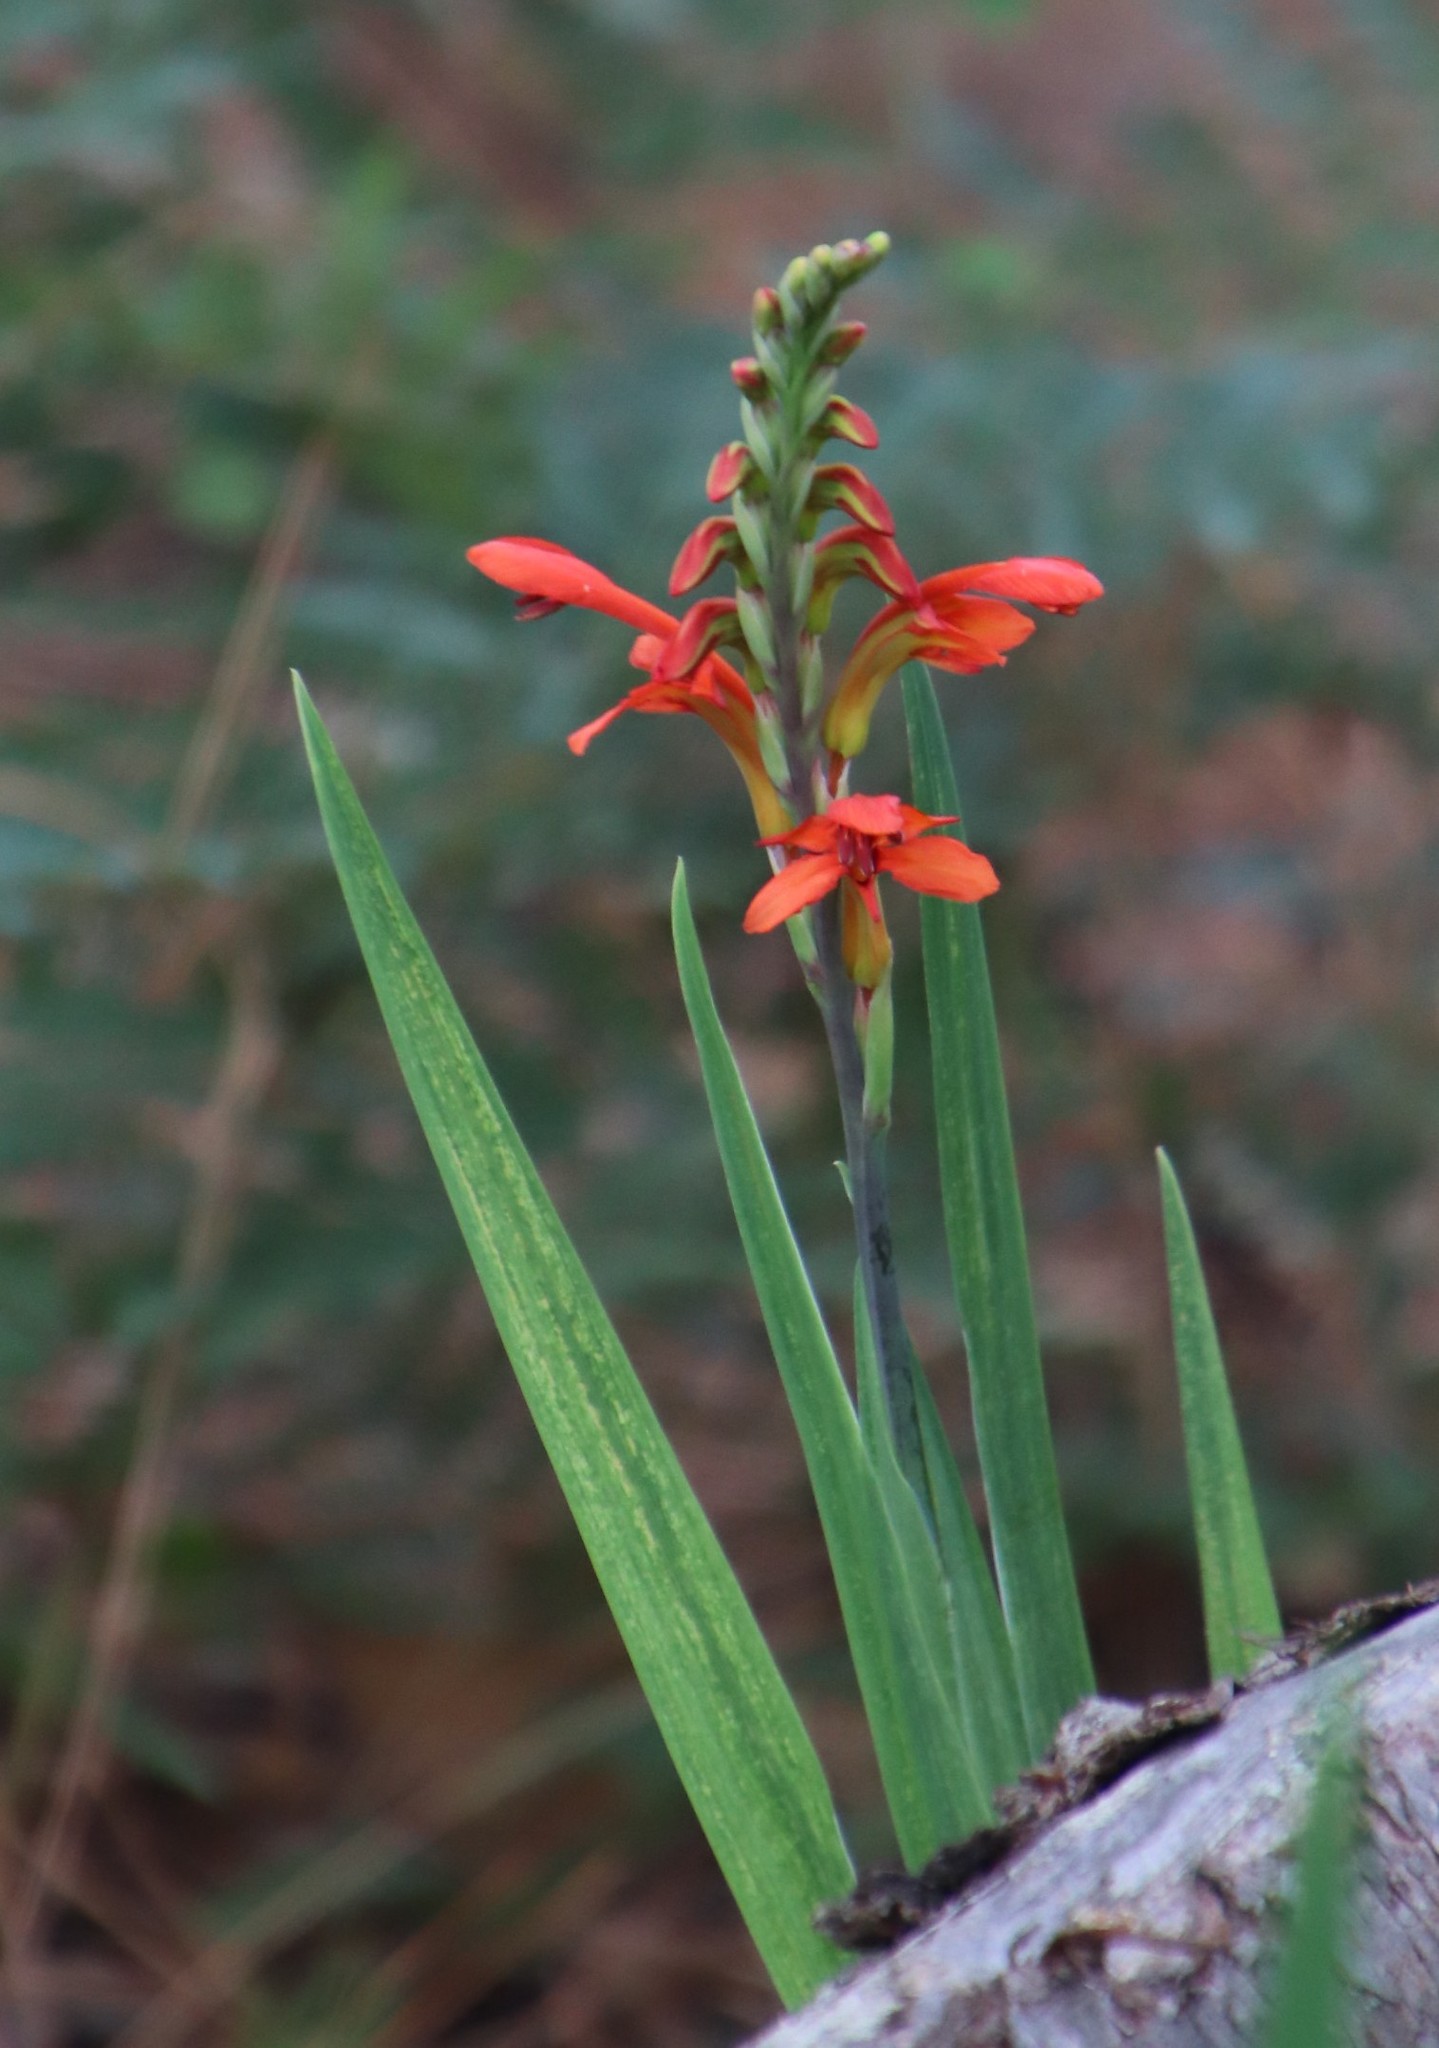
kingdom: Plantae
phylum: Tracheophyta
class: Liliopsida
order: Asparagales
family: Iridaceae
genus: Chasmanthe
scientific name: Chasmanthe aethiopica
